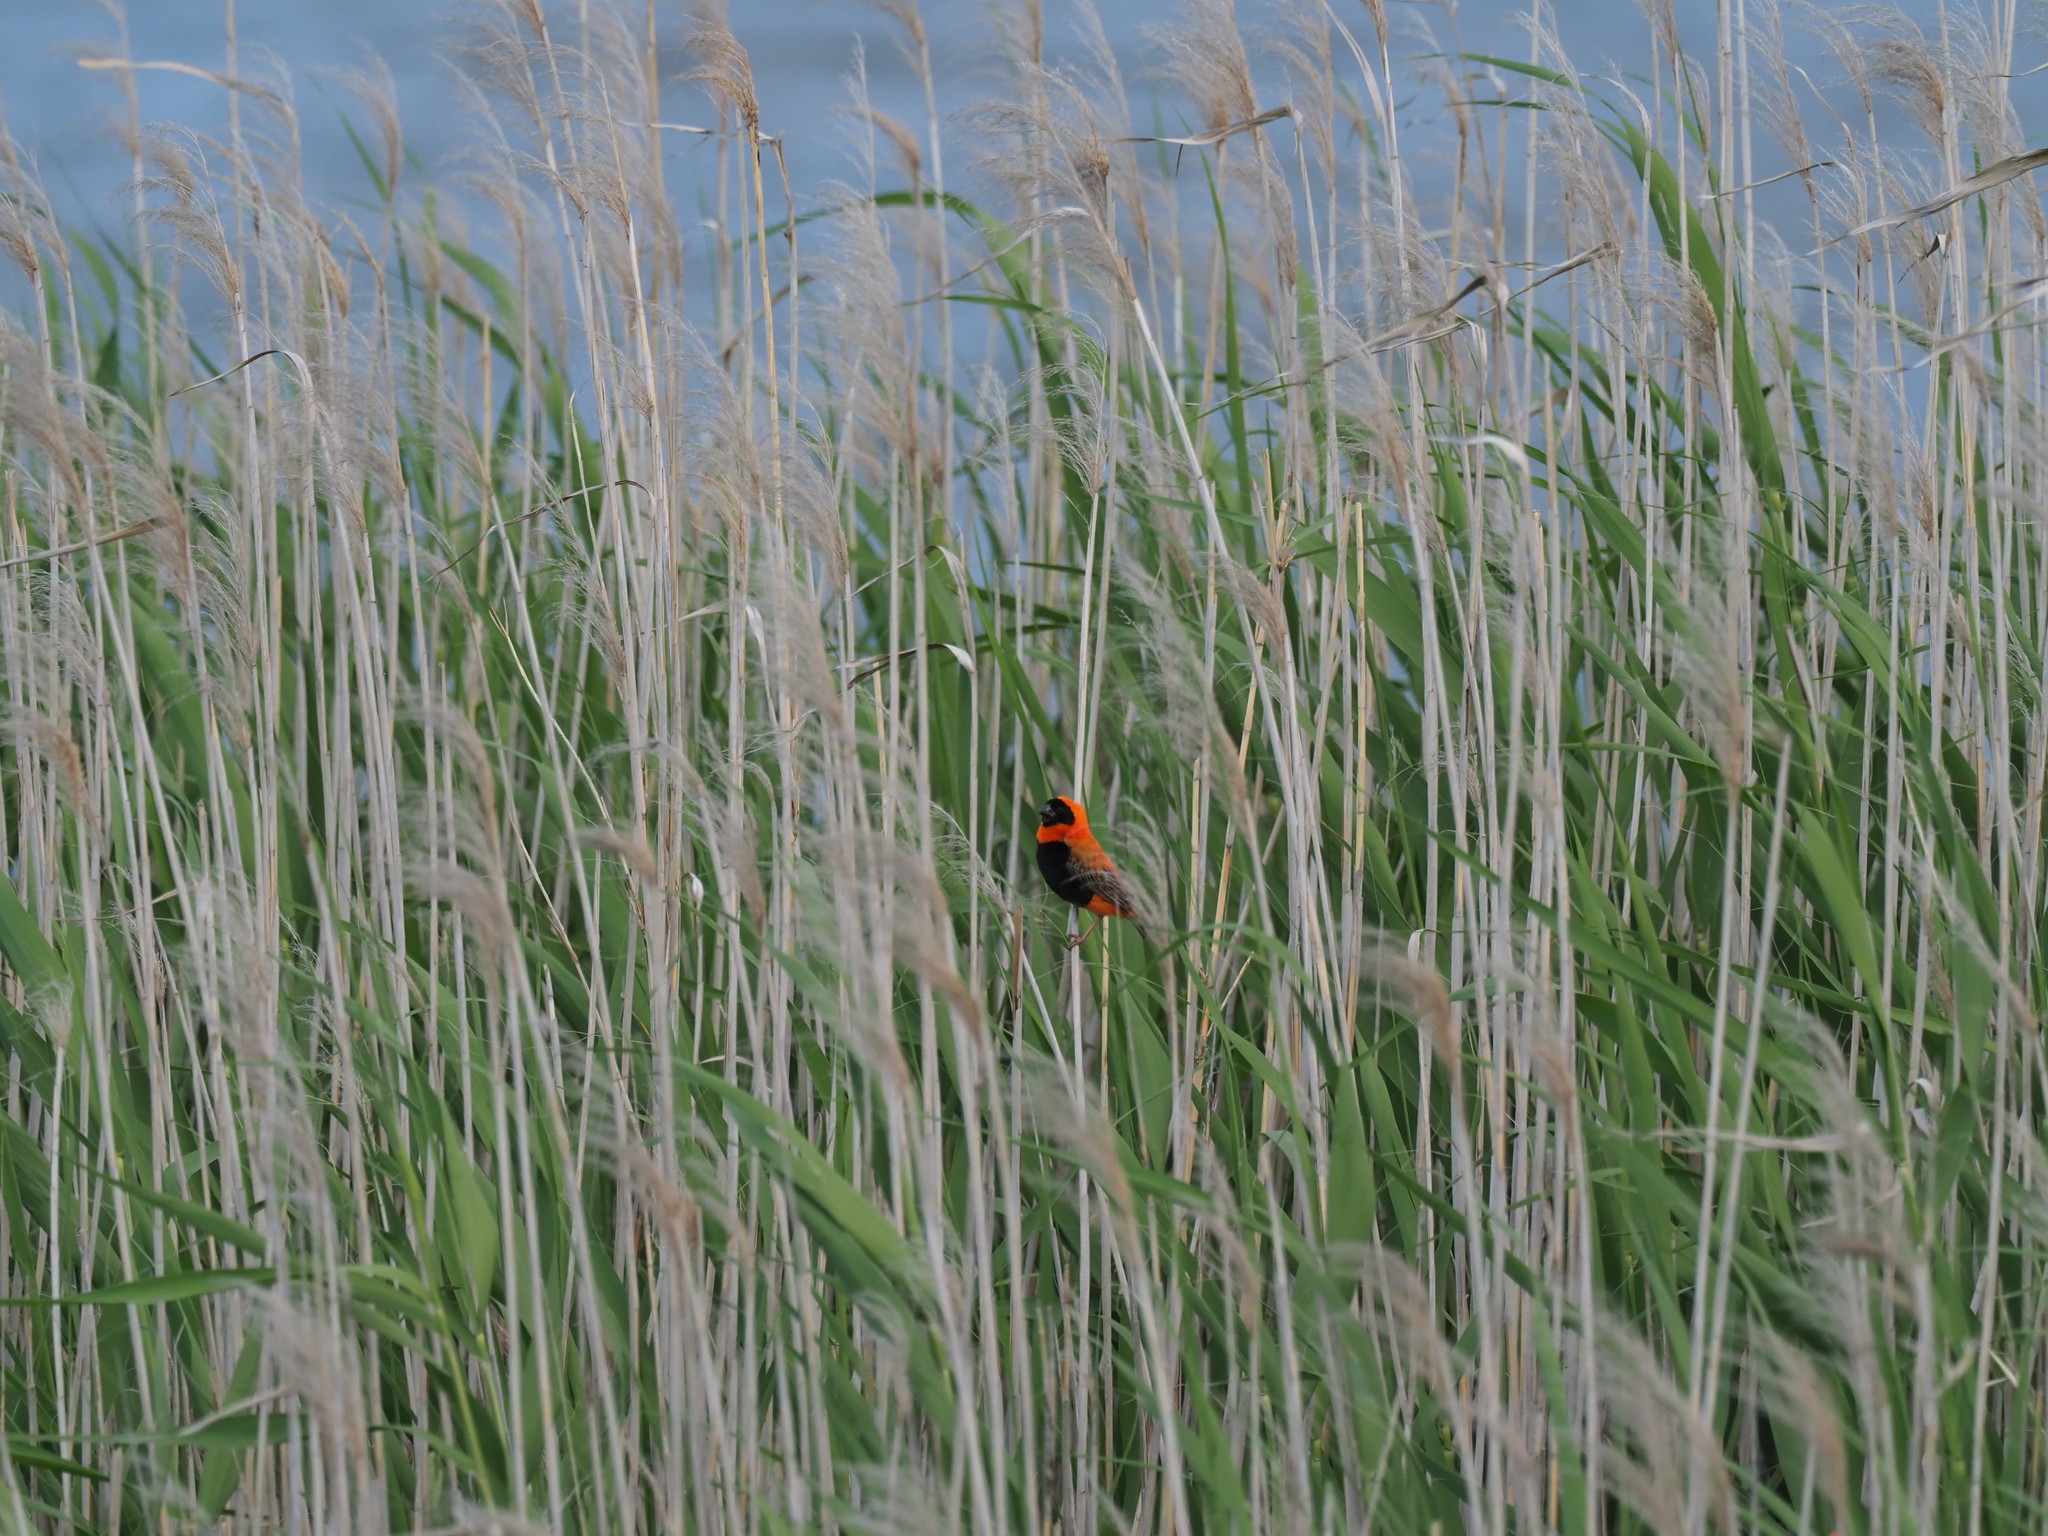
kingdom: Animalia
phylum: Chordata
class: Aves
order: Passeriformes
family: Ploceidae
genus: Euplectes
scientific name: Euplectes orix
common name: Southern red bishop
